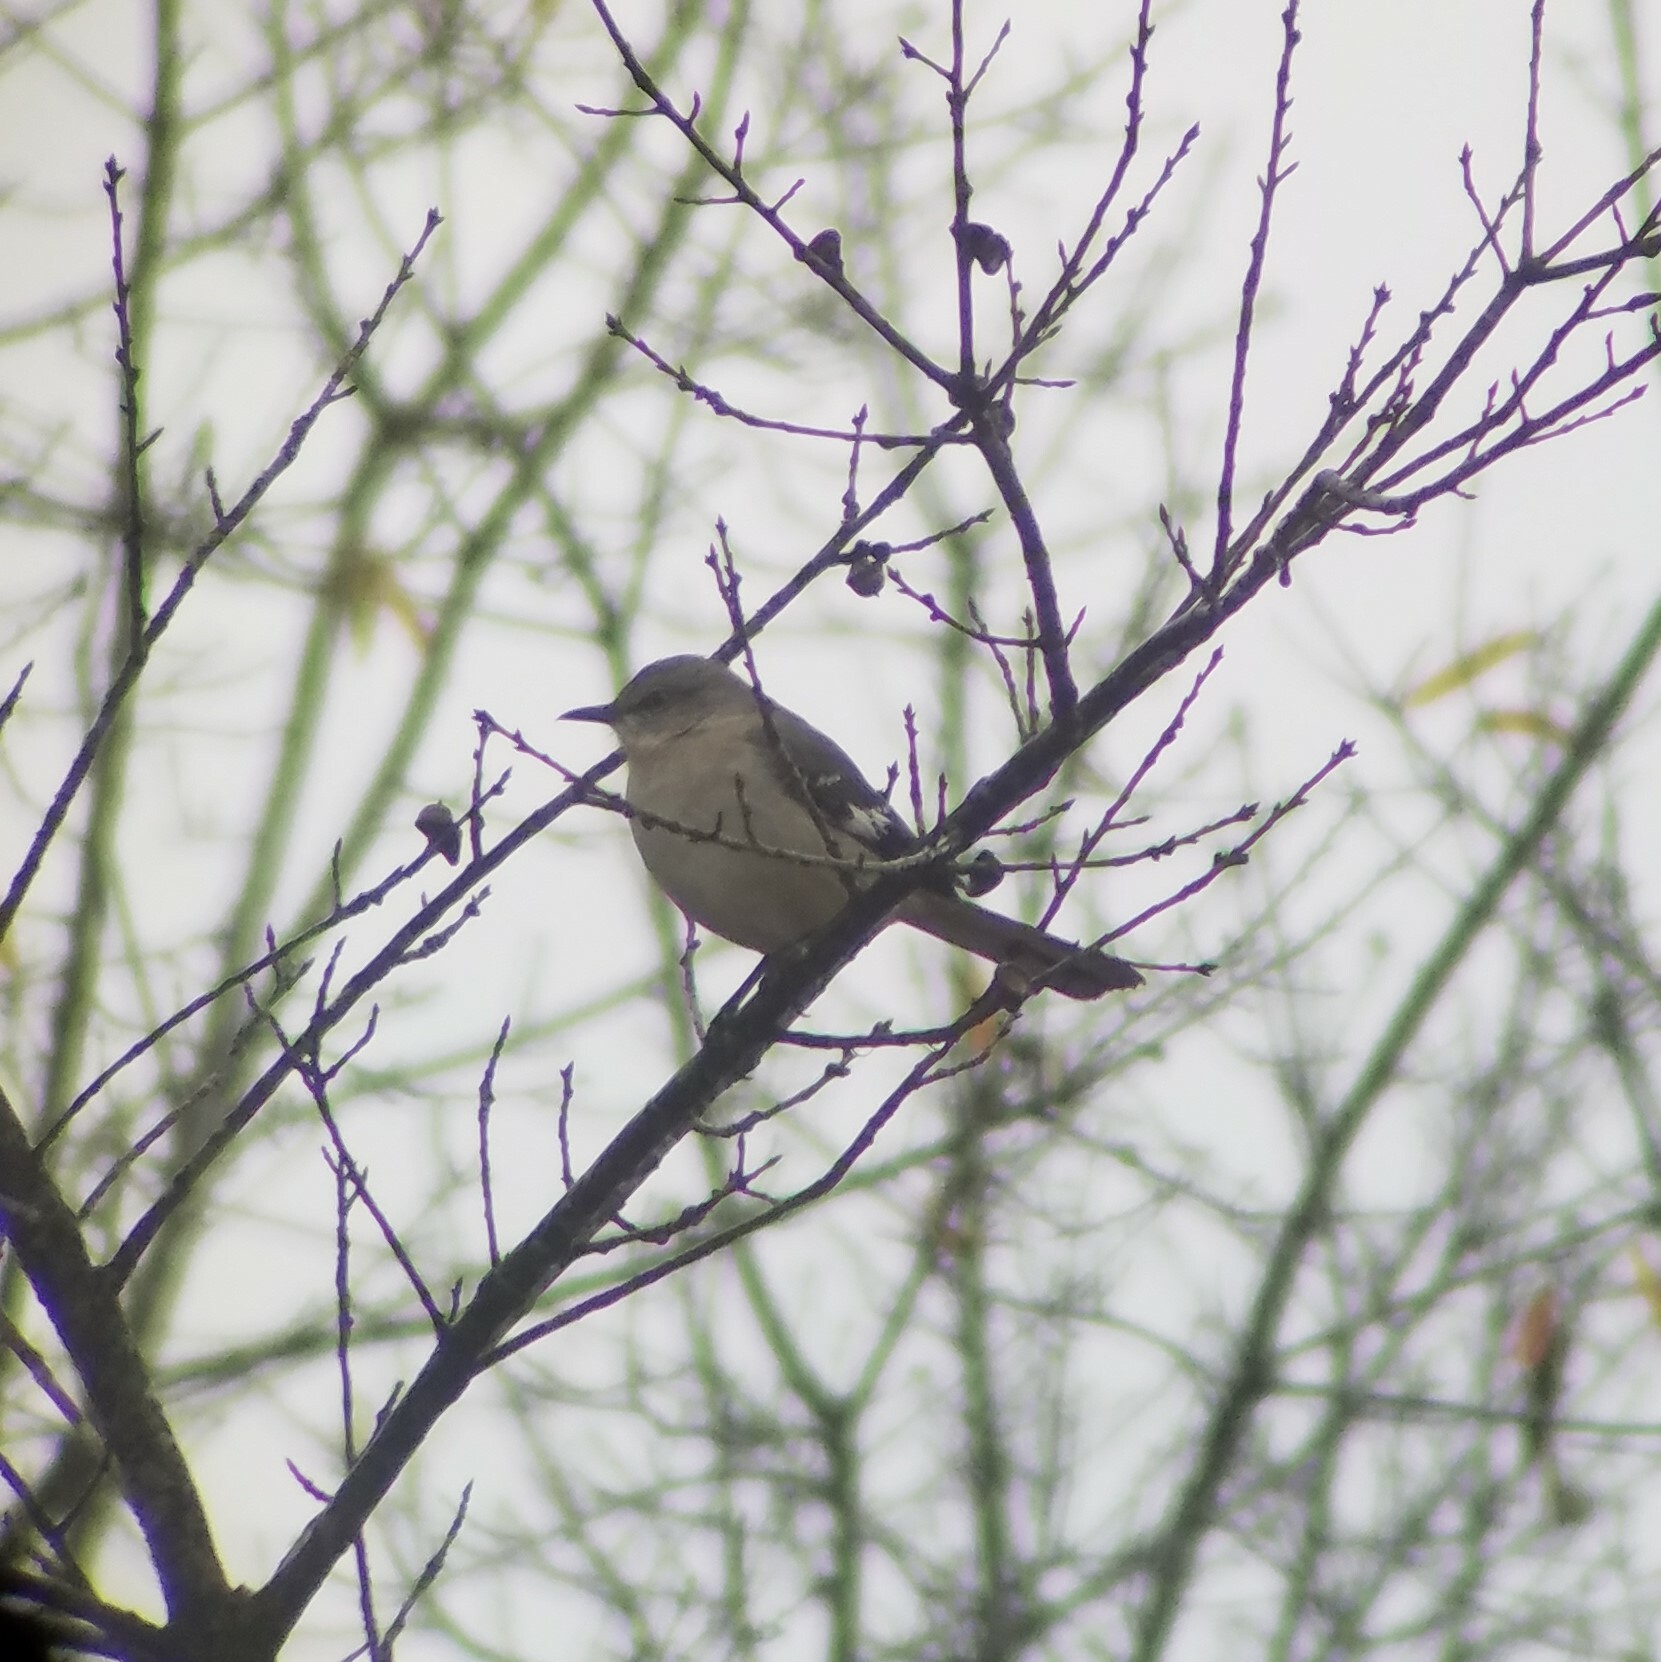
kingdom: Animalia
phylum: Chordata
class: Aves
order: Passeriformes
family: Mimidae
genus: Mimus
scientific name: Mimus polyglottos
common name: Northern mockingbird
